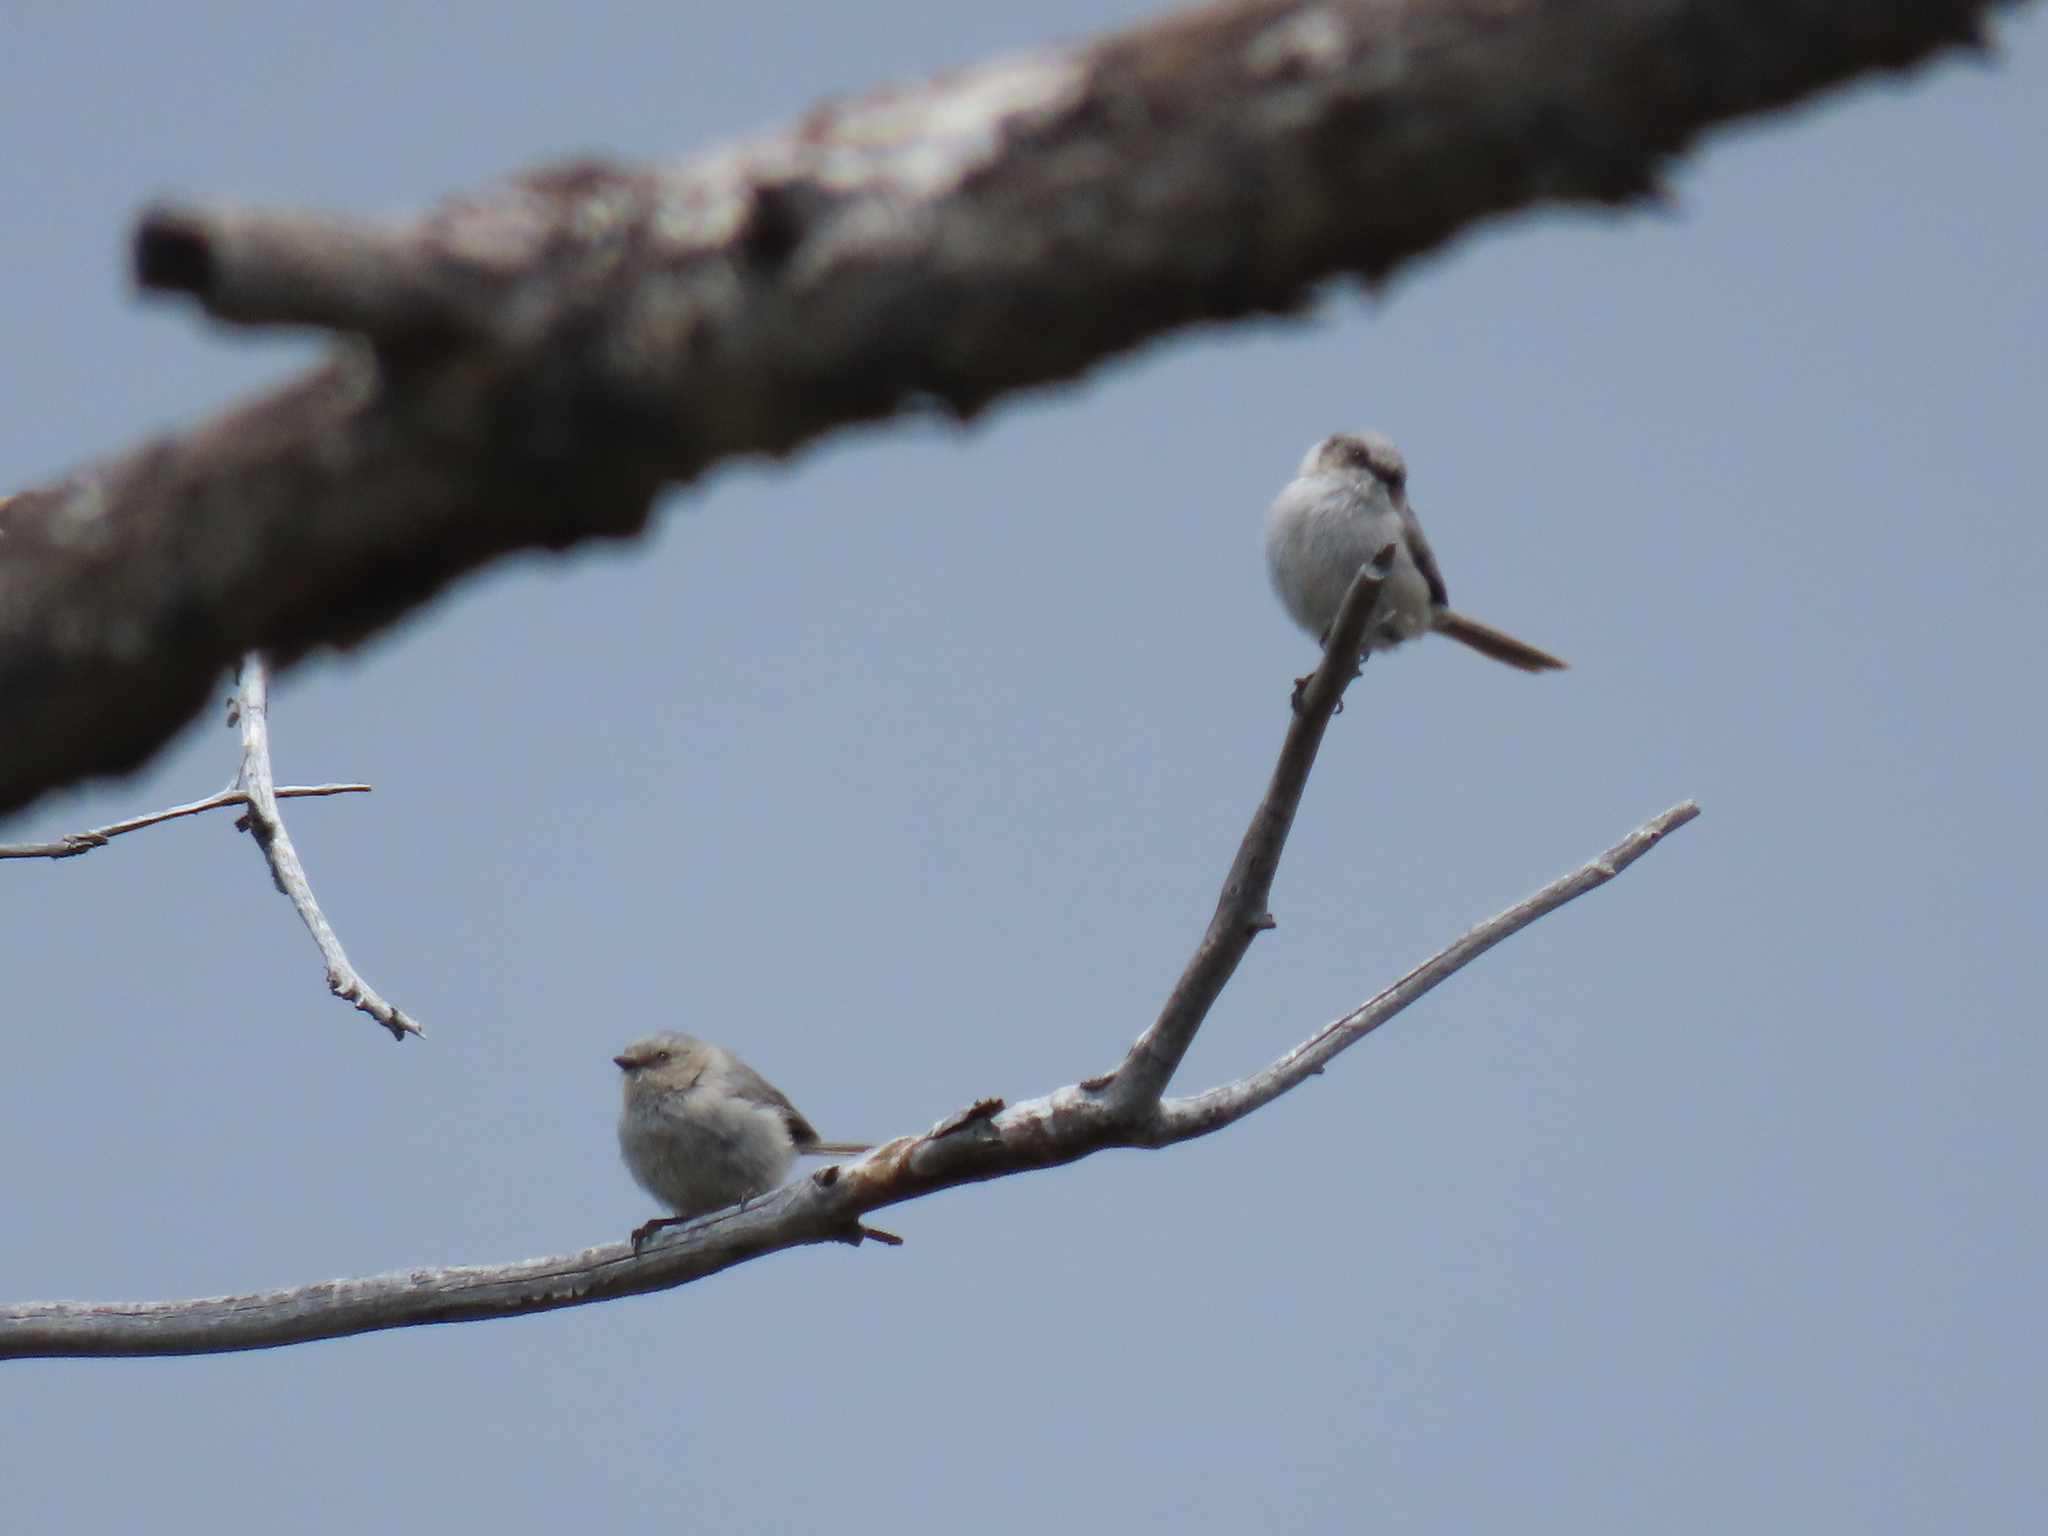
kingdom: Animalia
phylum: Chordata
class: Aves
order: Passeriformes
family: Aegithalidae
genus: Psaltriparus
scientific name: Psaltriparus minimus
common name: American bushtit
